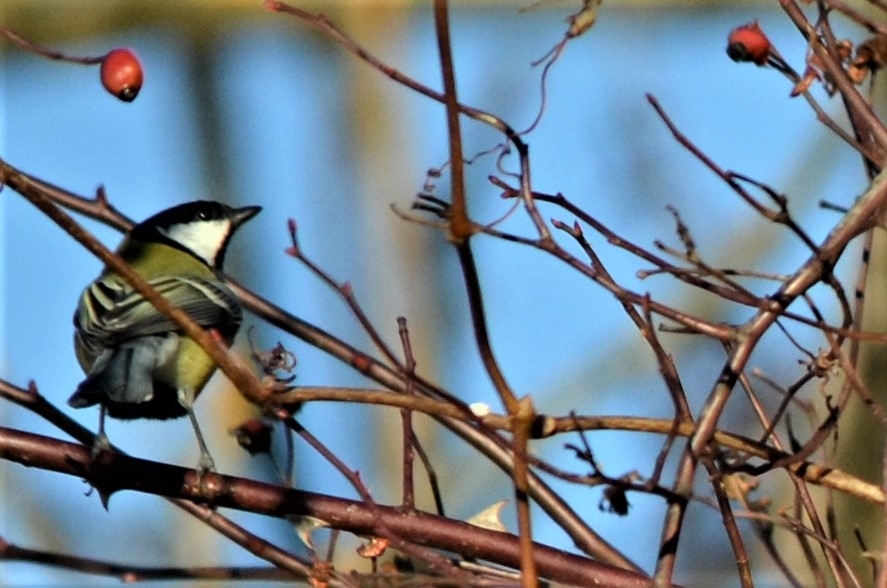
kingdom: Animalia
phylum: Chordata
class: Aves
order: Passeriformes
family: Paridae
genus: Parus
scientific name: Parus major
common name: Great tit
